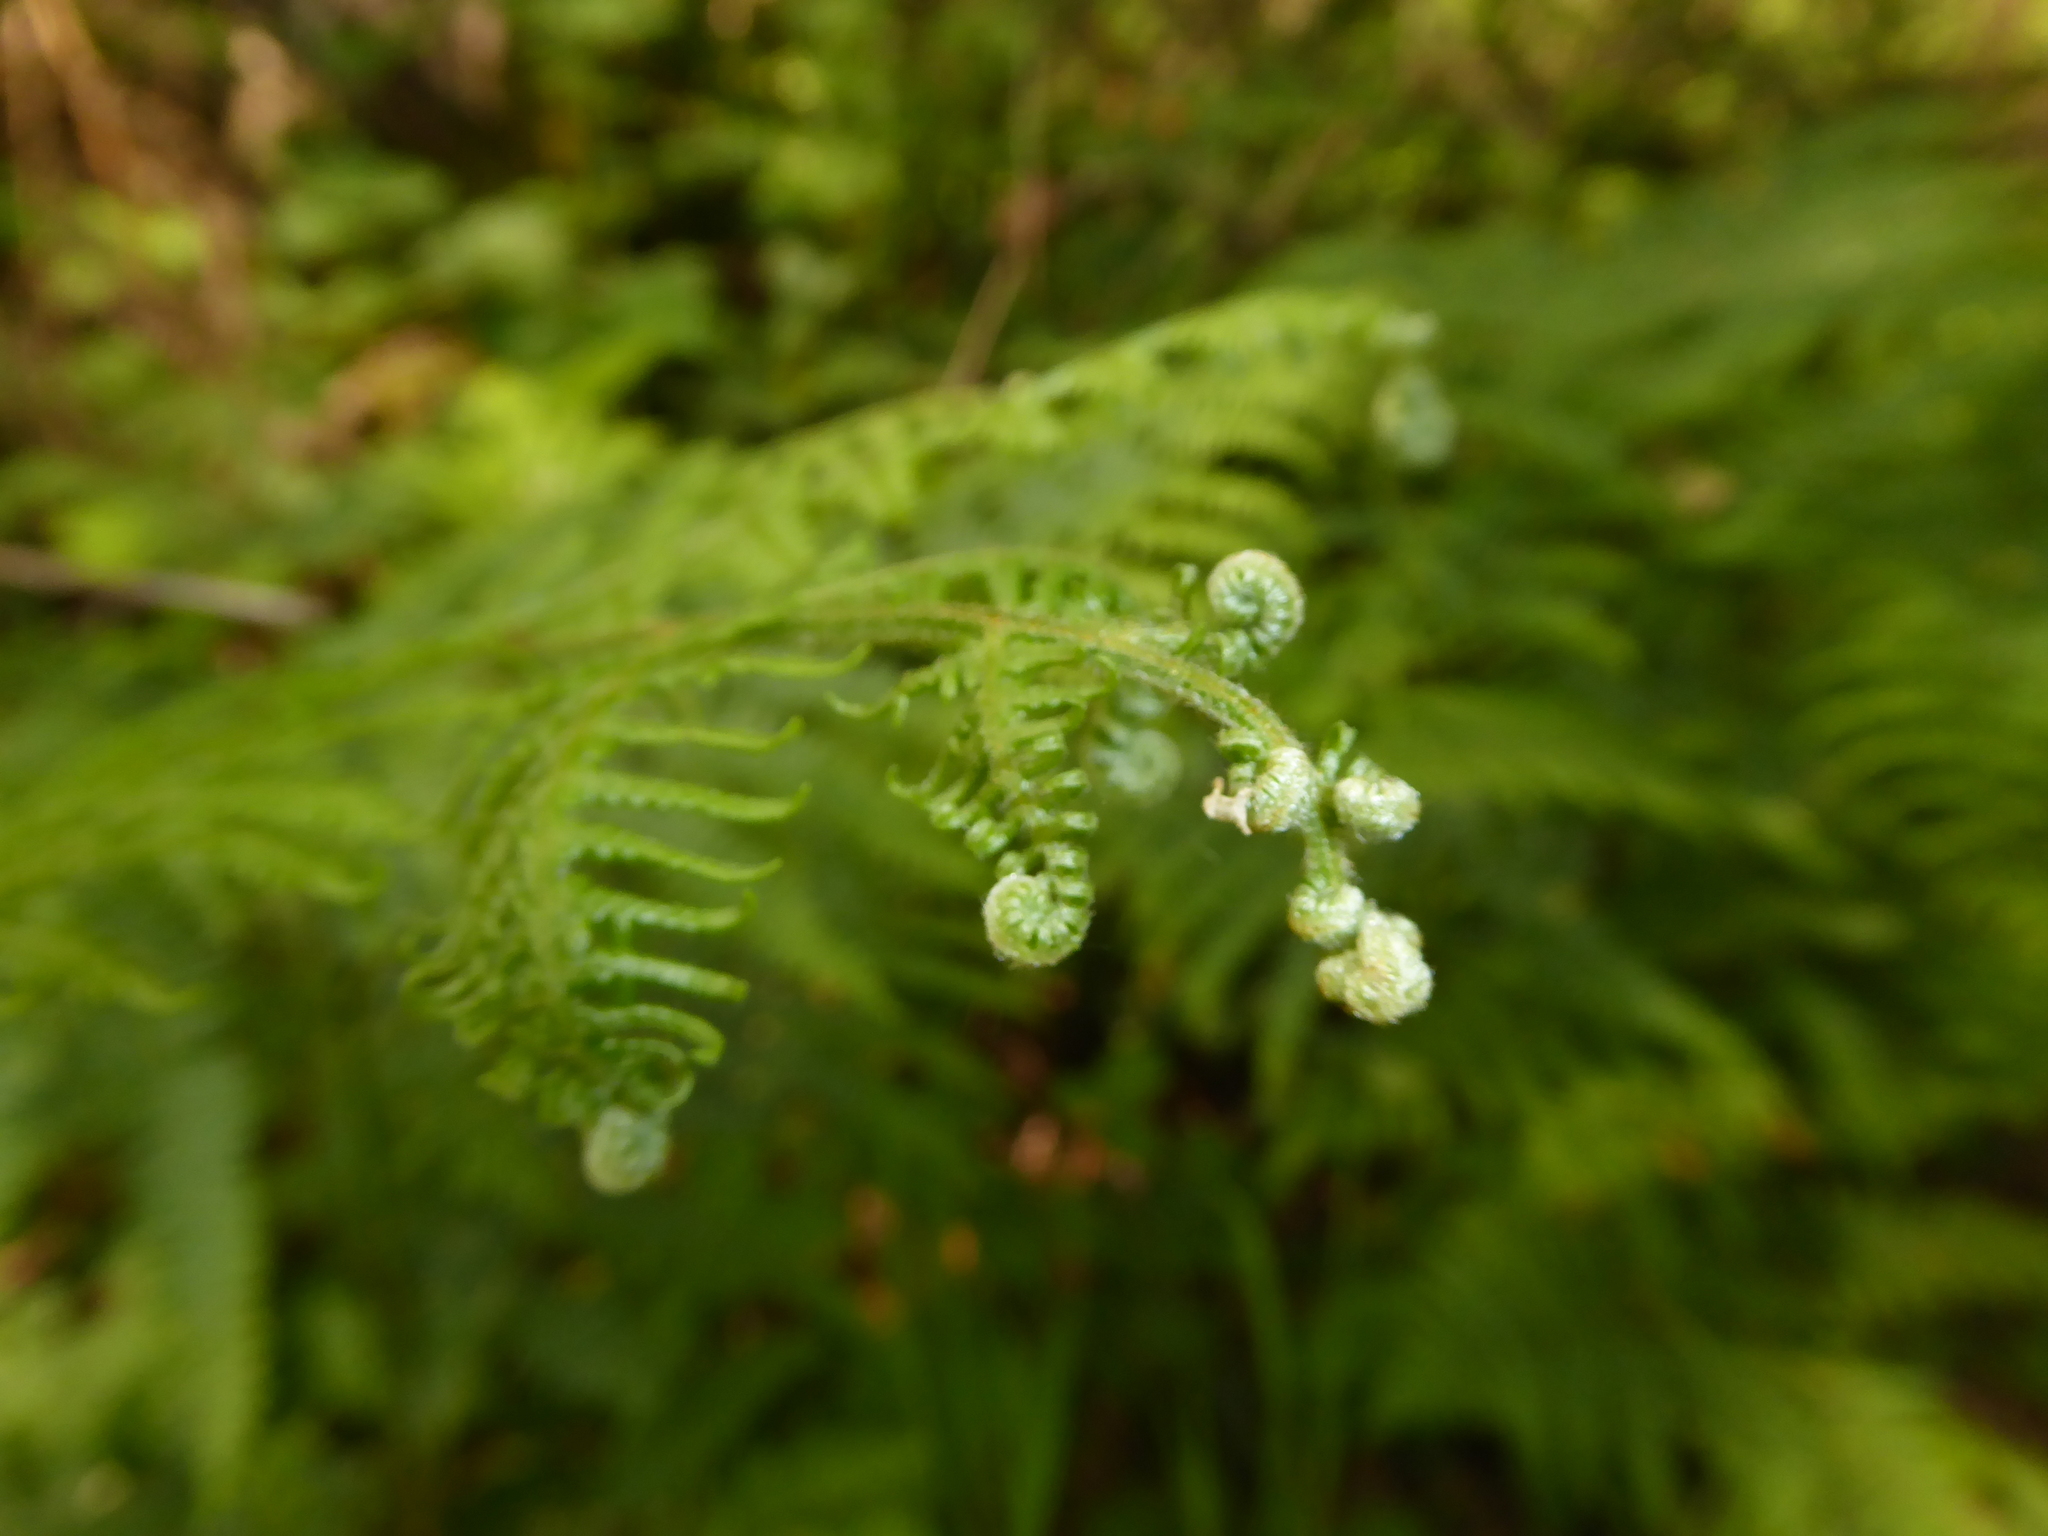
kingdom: Plantae
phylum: Tracheophyta
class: Polypodiopsida
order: Polypodiales
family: Dennstaedtiaceae
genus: Pteridium
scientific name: Pteridium aquilinum
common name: Bracken
